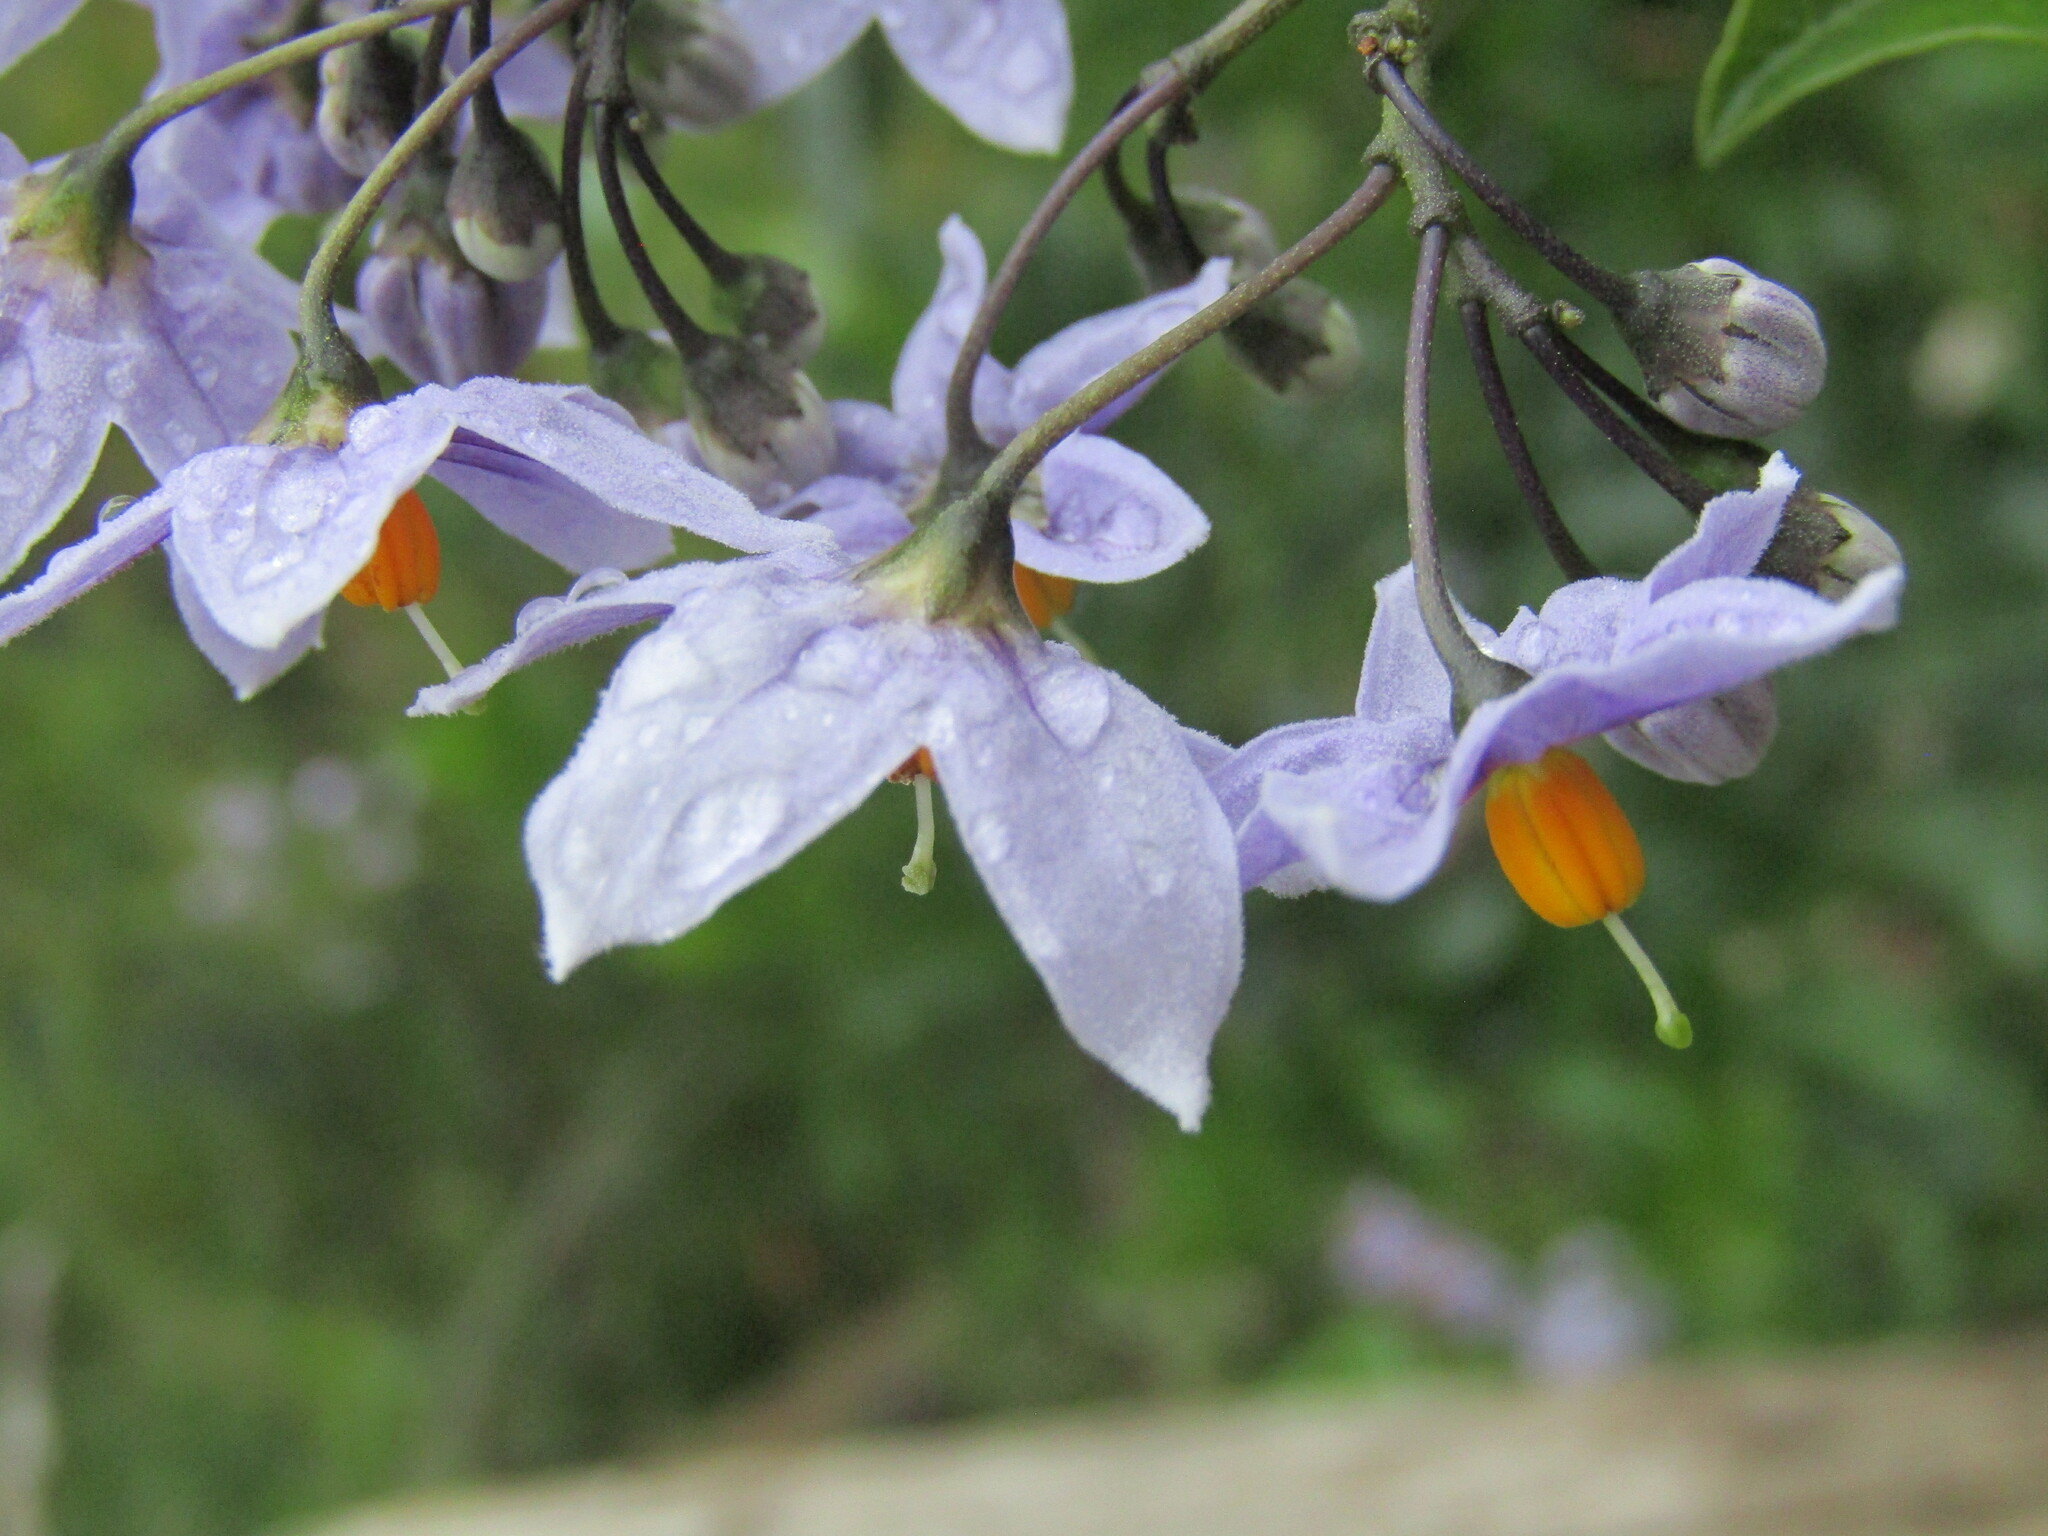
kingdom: Plantae
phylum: Tracheophyta
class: Magnoliopsida
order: Solanales
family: Solanaceae
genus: Solanum
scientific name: Solanum crispum
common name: Chilean nightshade
